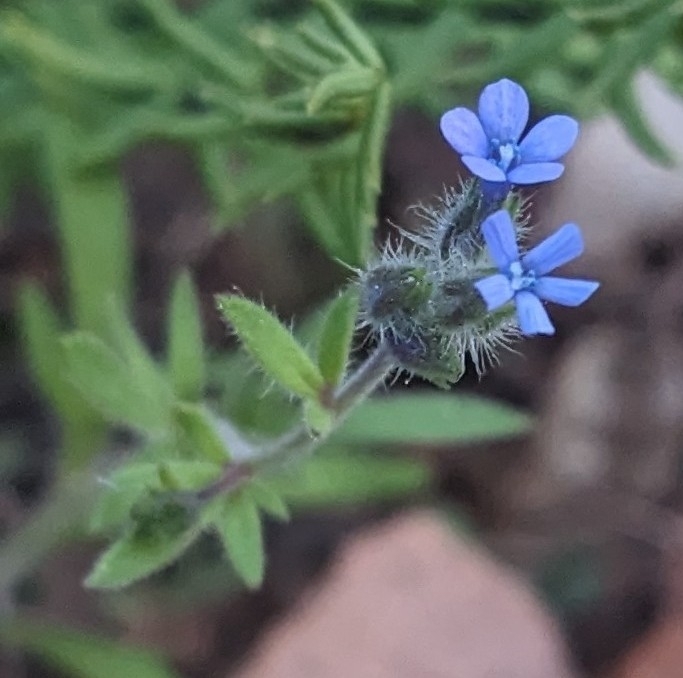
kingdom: Plantae
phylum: Tracheophyta
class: Magnoliopsida
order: Ericales
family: Polemoniaceae
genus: Allophyllum
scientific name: Allophyllum gilioides
